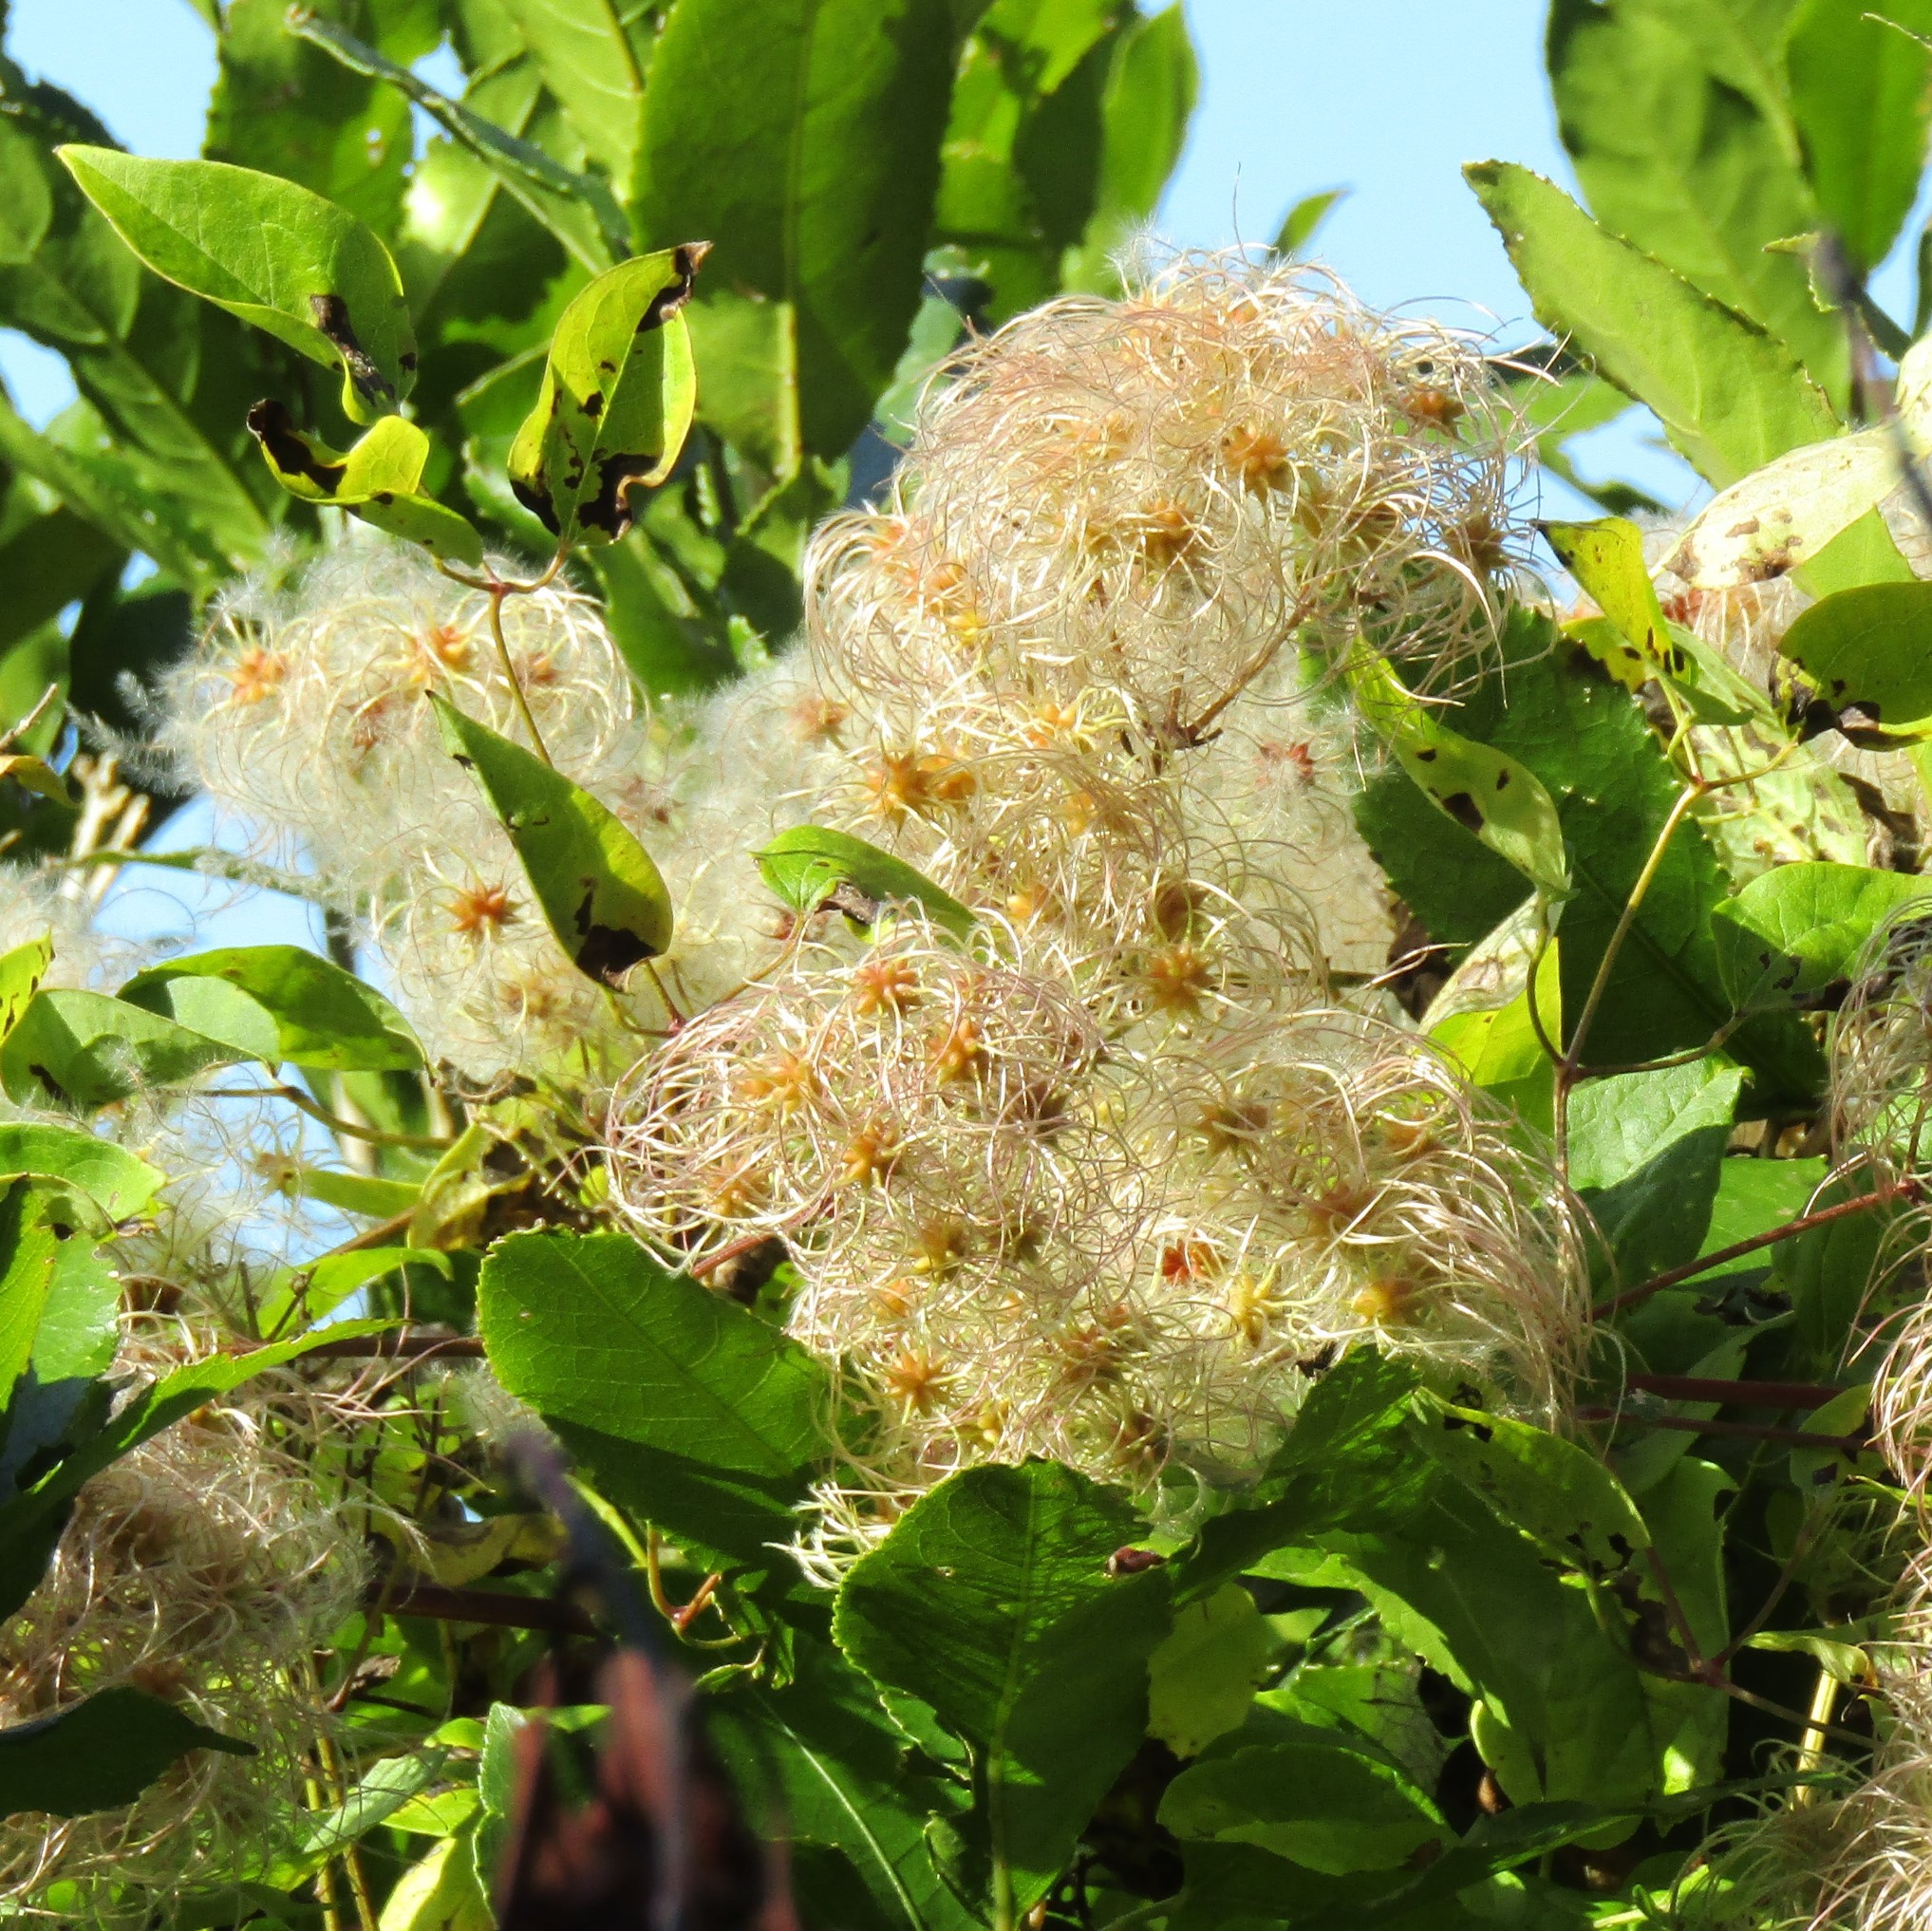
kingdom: Plantae
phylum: Tracheophyta
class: Magnoliopsida
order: Ranunculales
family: Ranunculaceae
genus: Clematis
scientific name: Clematis vitalba
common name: Evergreen clematis
